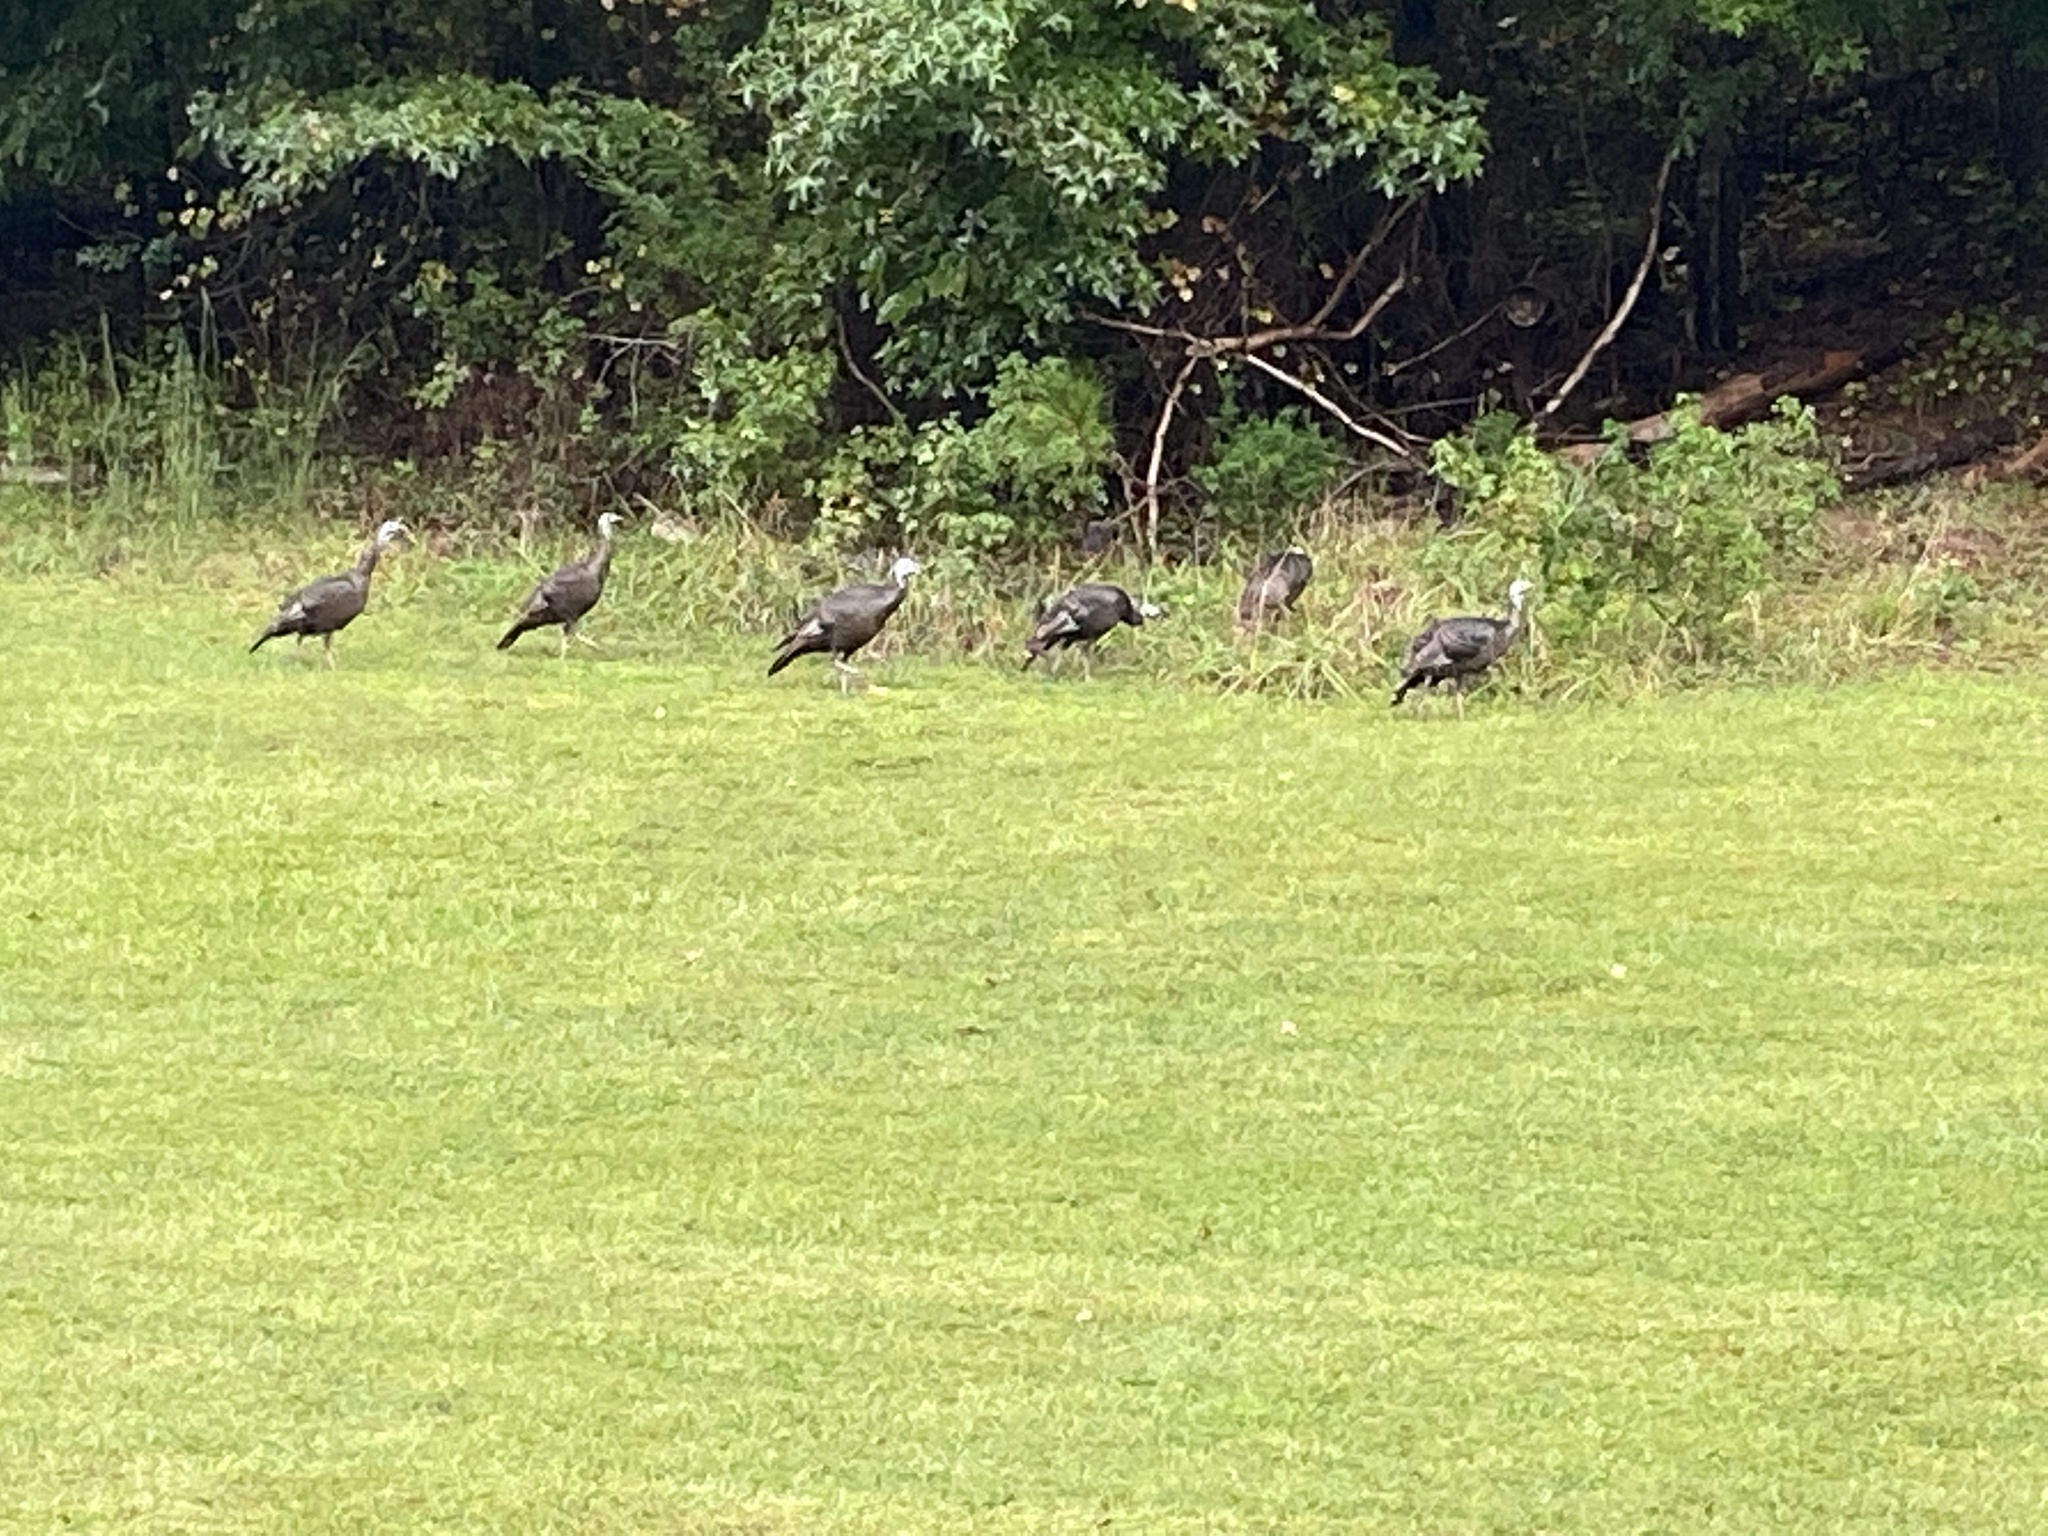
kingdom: Animalia
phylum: Chordata
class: Aves
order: Galliformes
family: Phasianidae
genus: Meleagris
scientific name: Meleagris gallopavo
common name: Wild turkey
